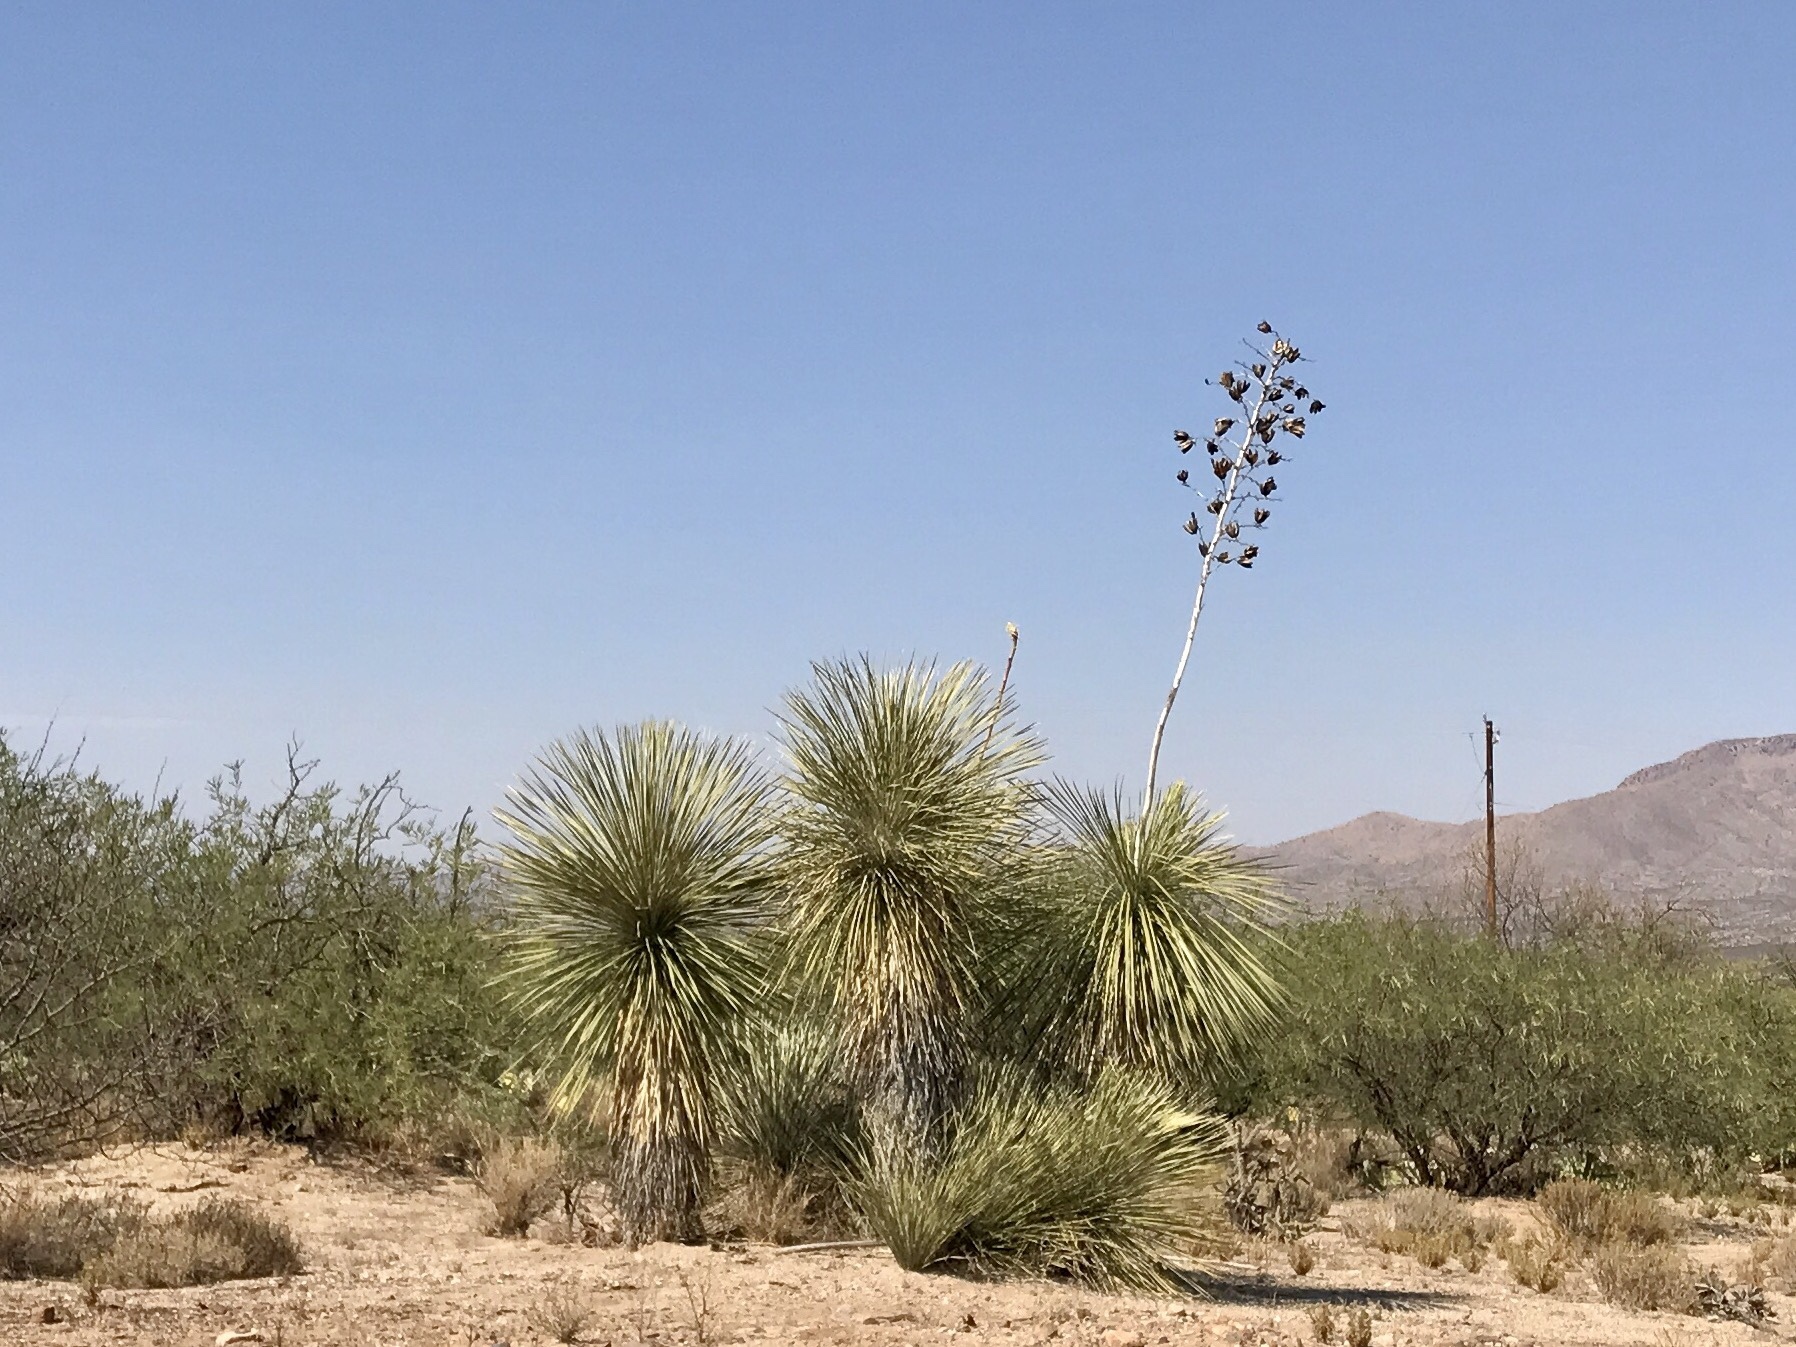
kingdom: Plantae
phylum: Tracheophyta
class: Liliopsida
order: Asparagales
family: Asparagaceae
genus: Yucca
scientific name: Yucca elata
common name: Palmella
